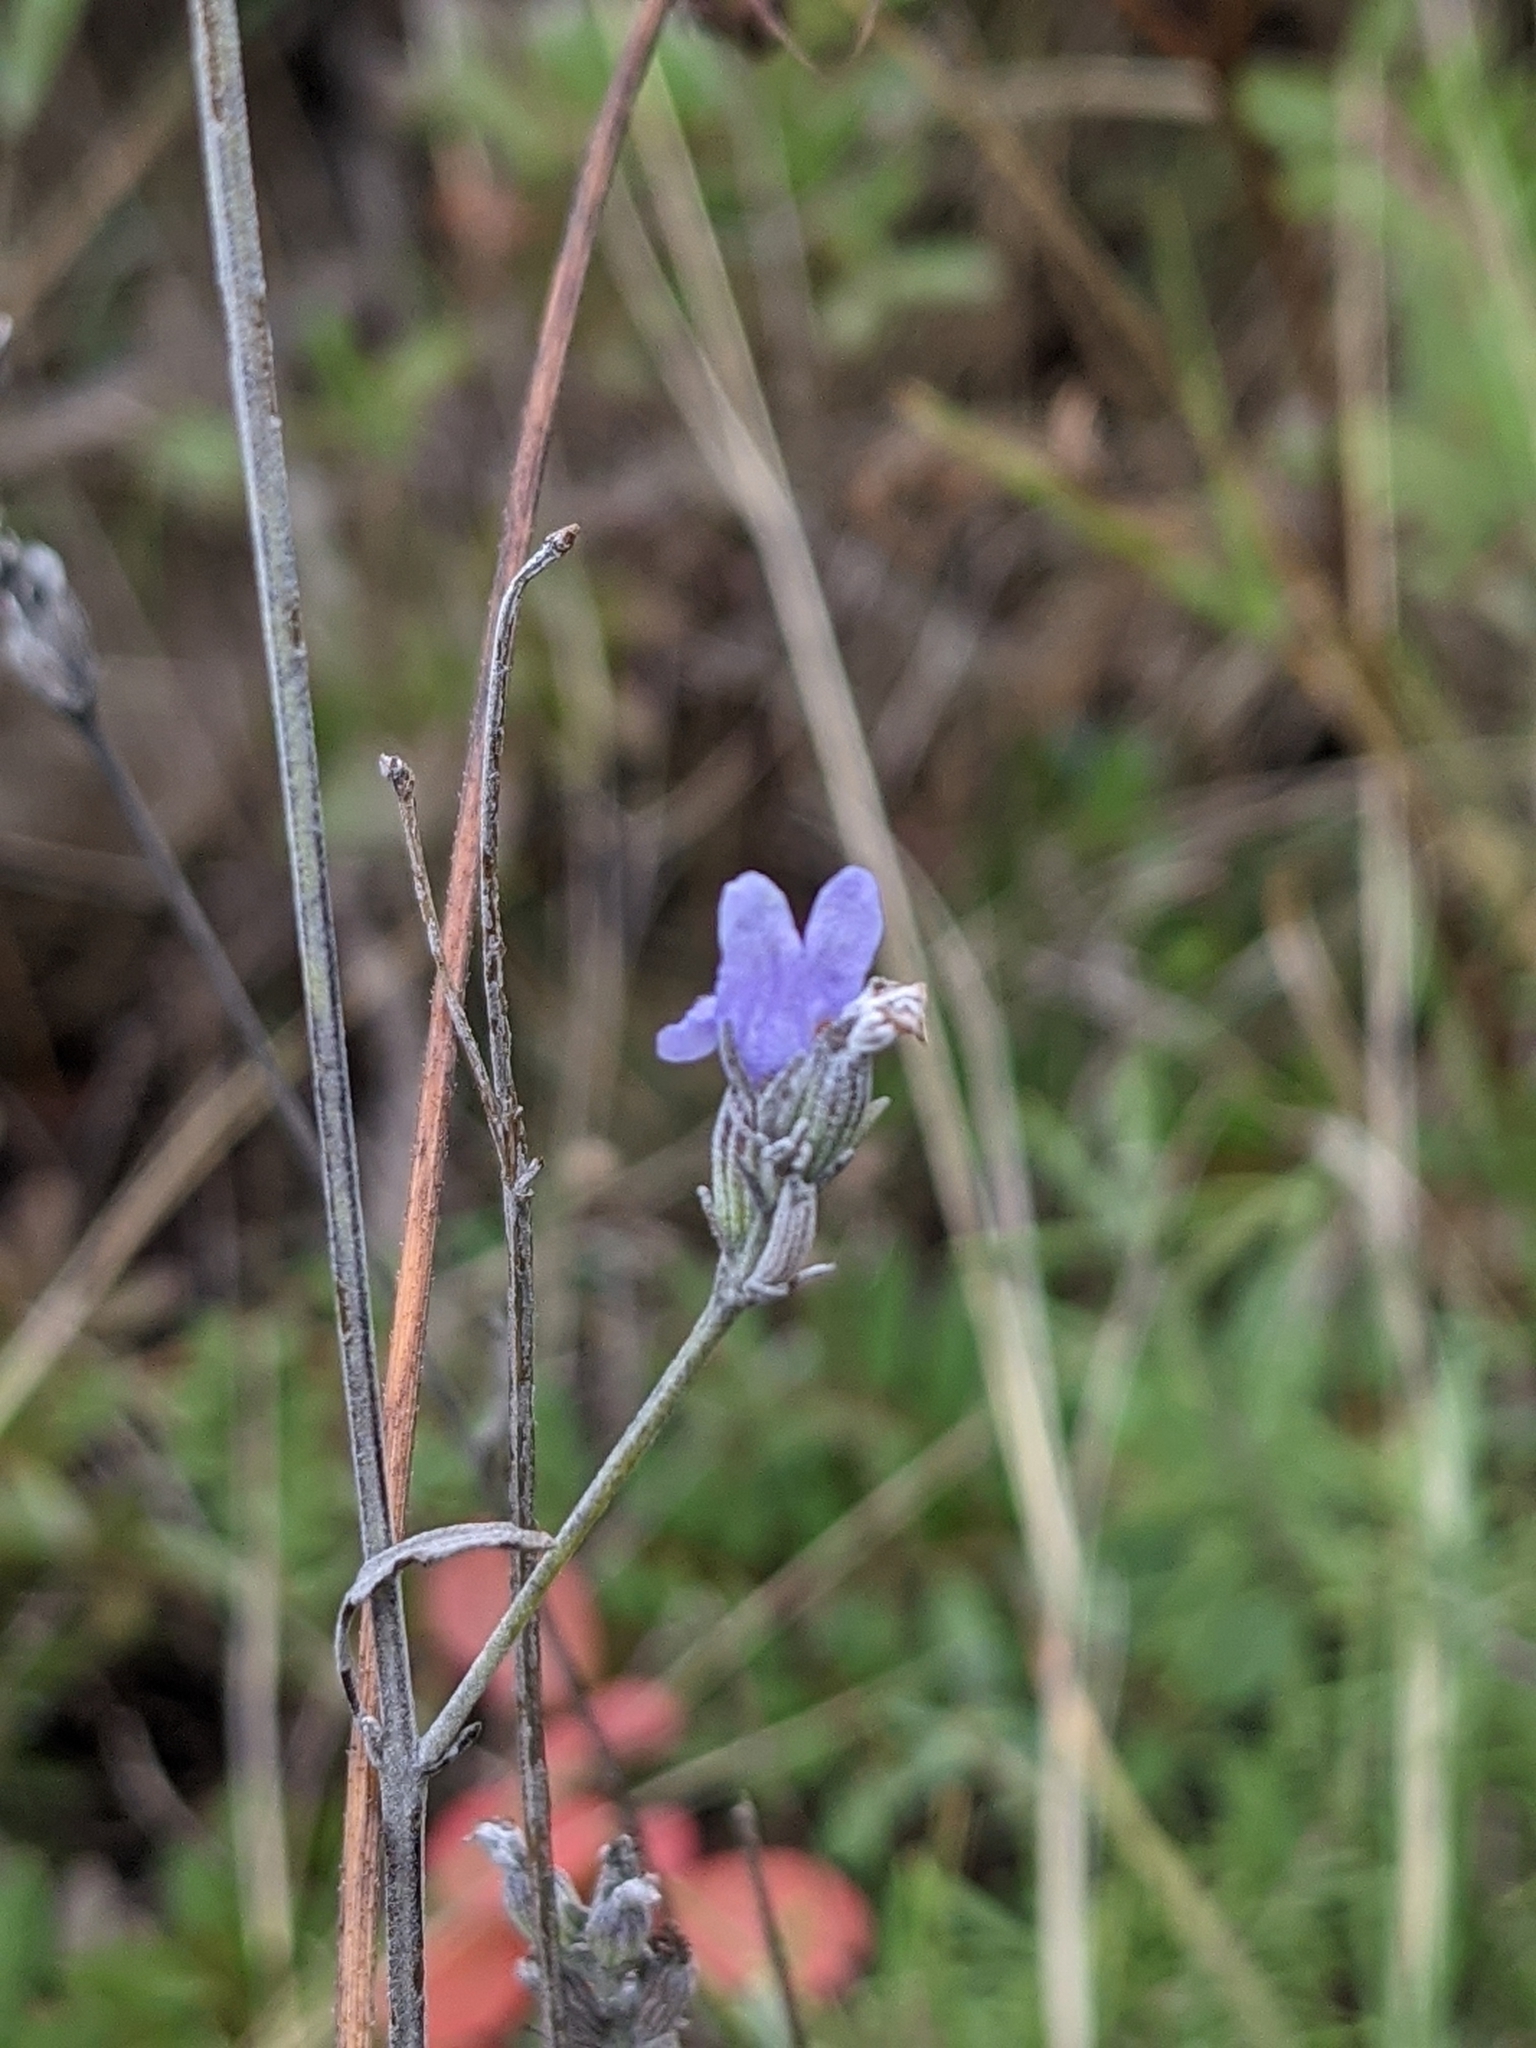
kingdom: Plantae
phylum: Tracheophyta
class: Magnoliopsida
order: Lamiales
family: Lamiaceae
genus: Lavandula
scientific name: Lavandula latifolia
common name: Spike lavendar
